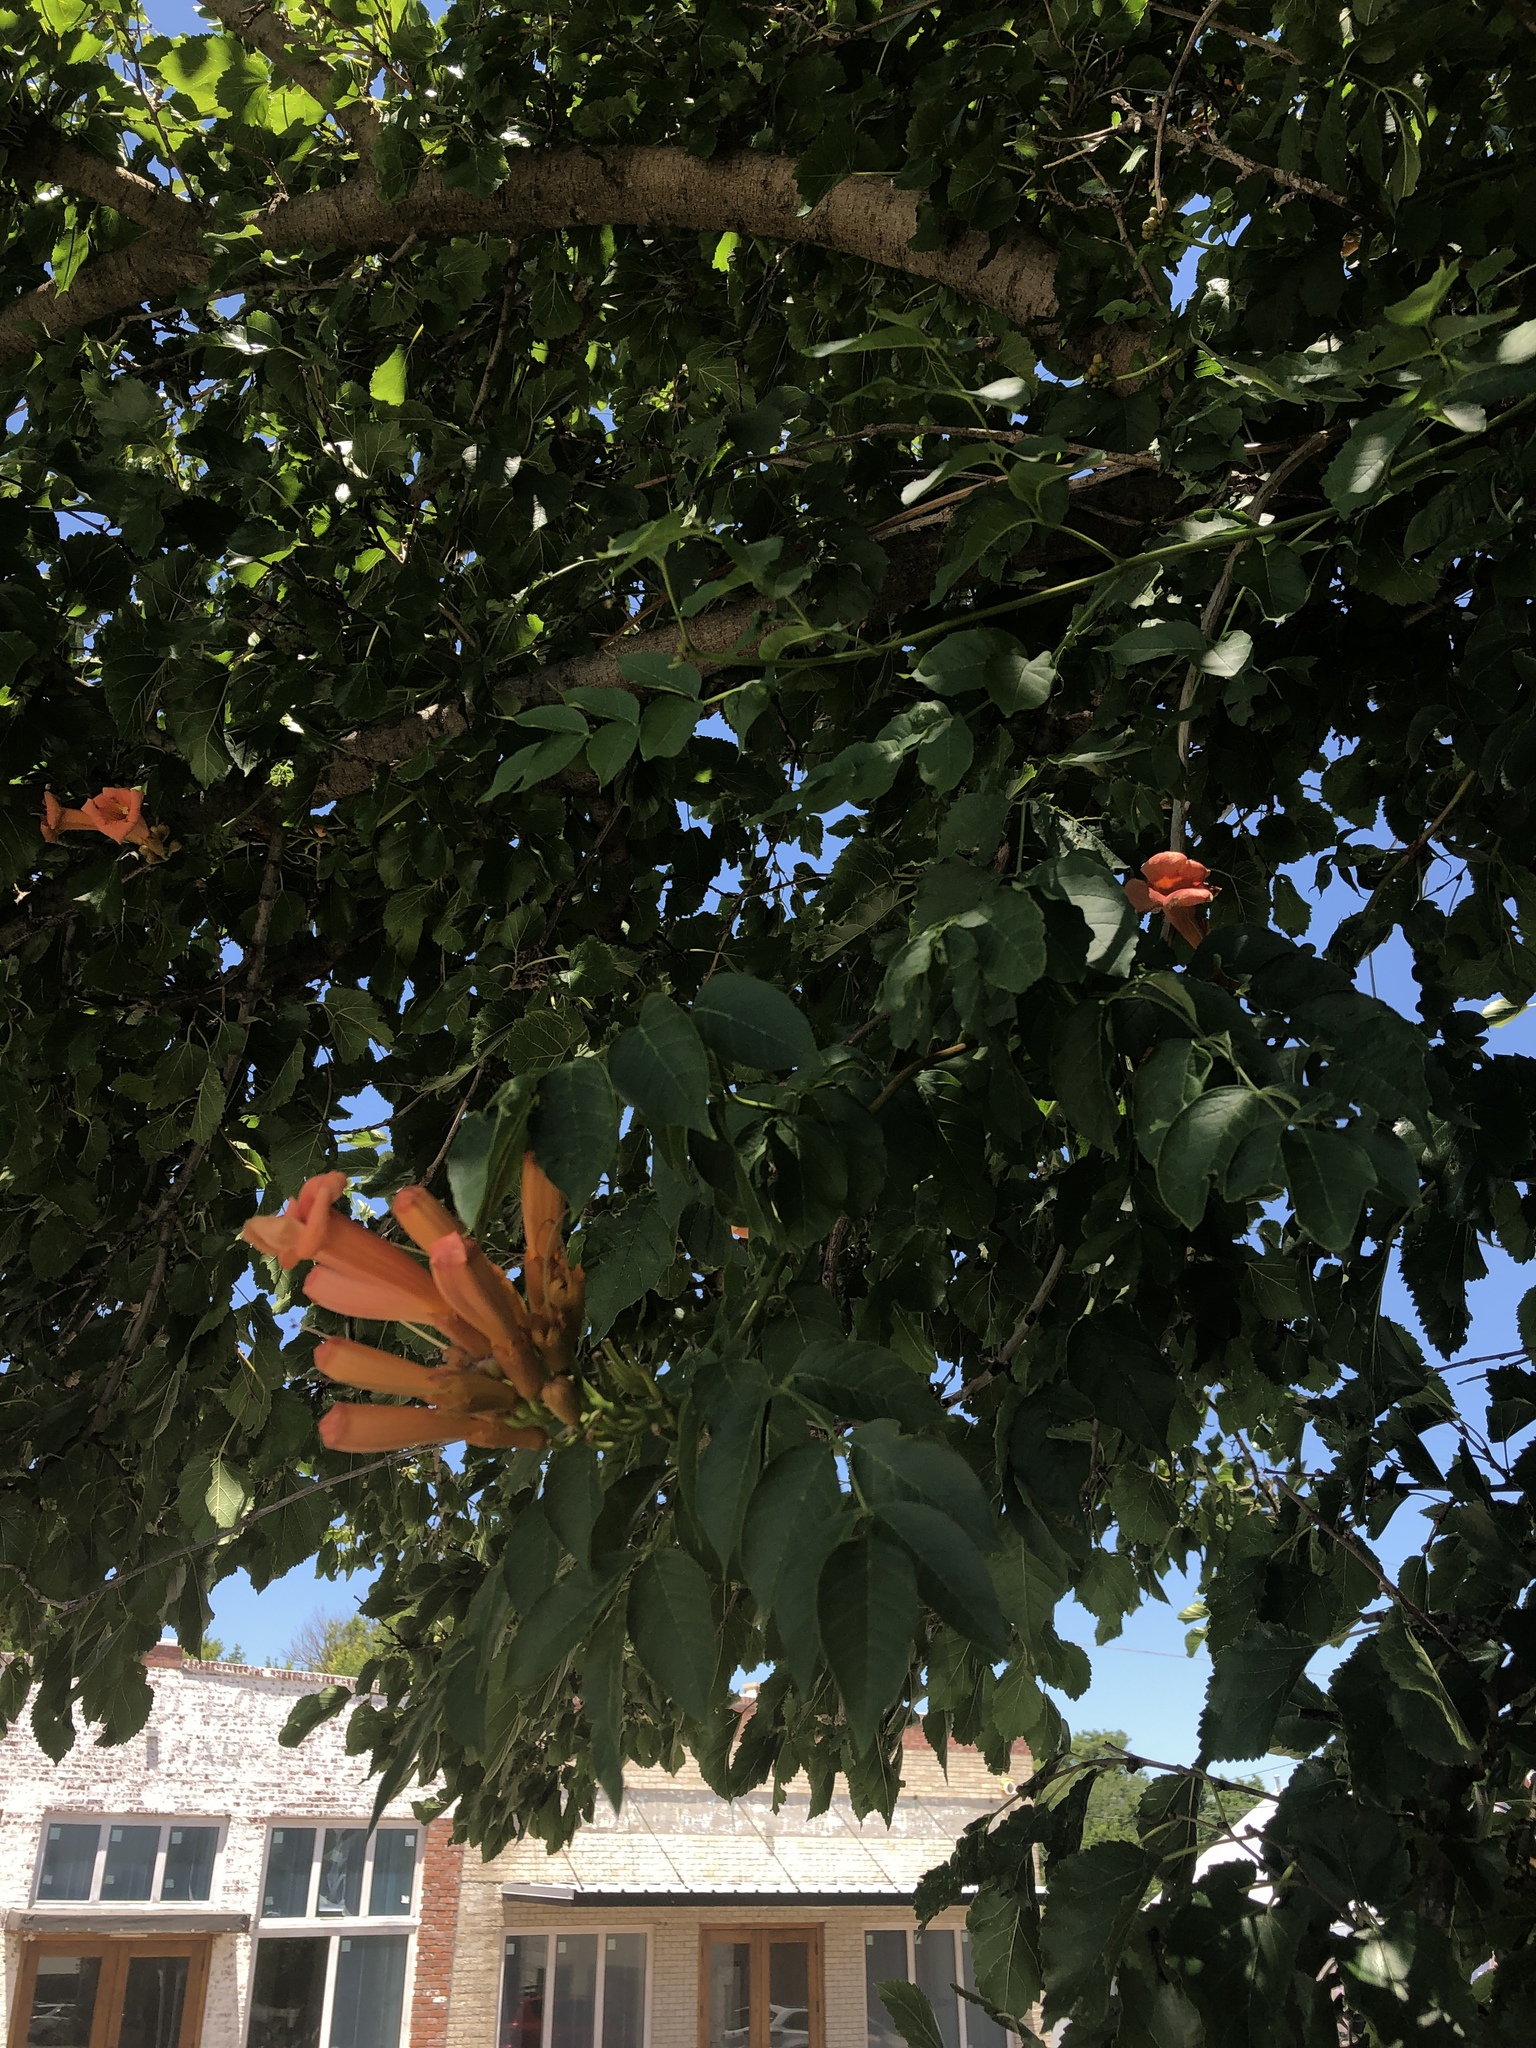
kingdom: Plantae
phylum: Tracheophyta
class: Magnoliopsida
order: Lamiales
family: Bignoniaceae
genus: Campsis
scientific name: Campsis radicans
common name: Trumpet-creeper
